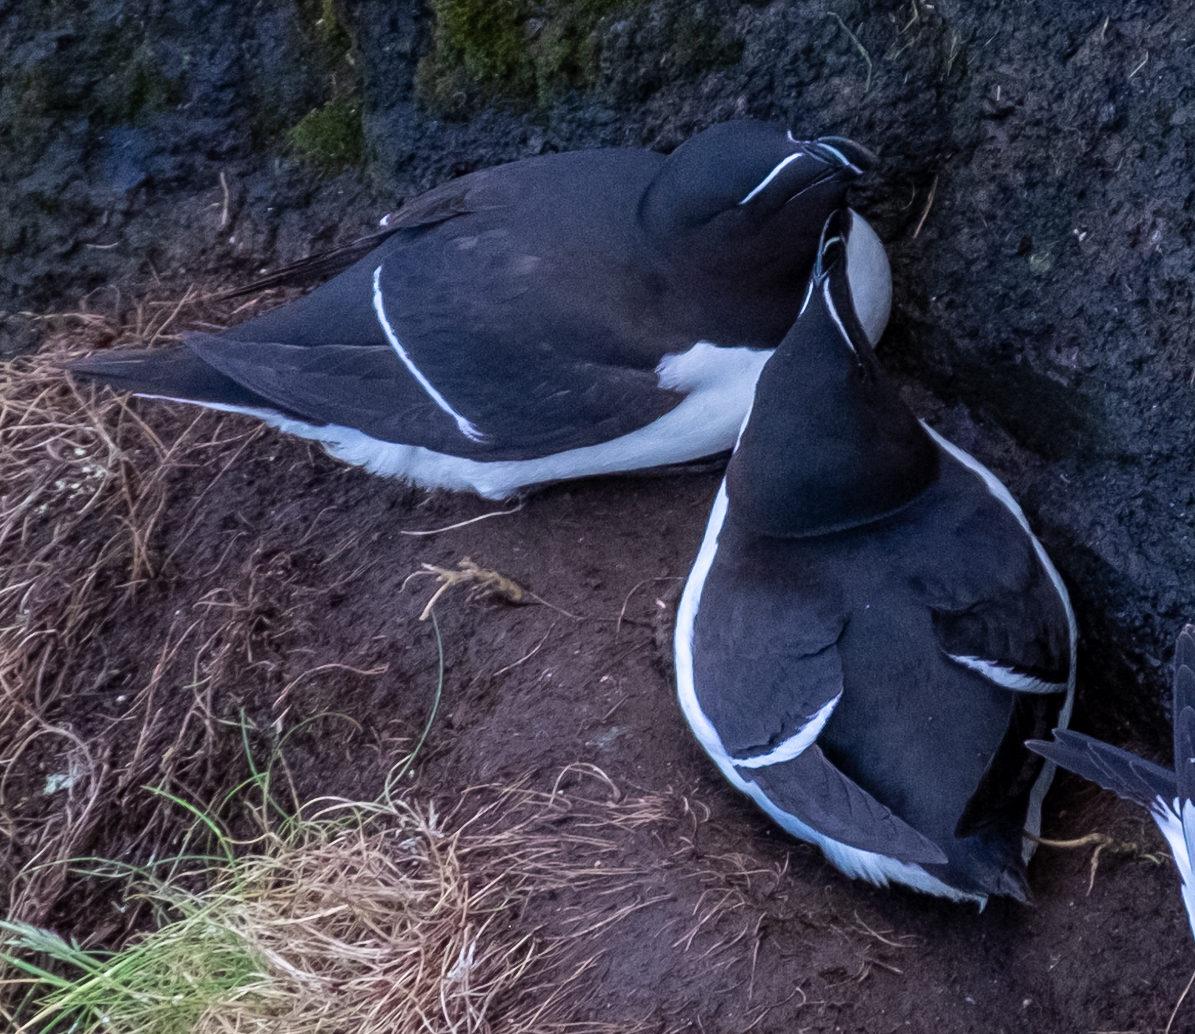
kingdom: Animalia
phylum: Chordata
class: Aves
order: Charadriiformes
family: Alcidae
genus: Alca
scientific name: Alca torda
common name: Razorbill
